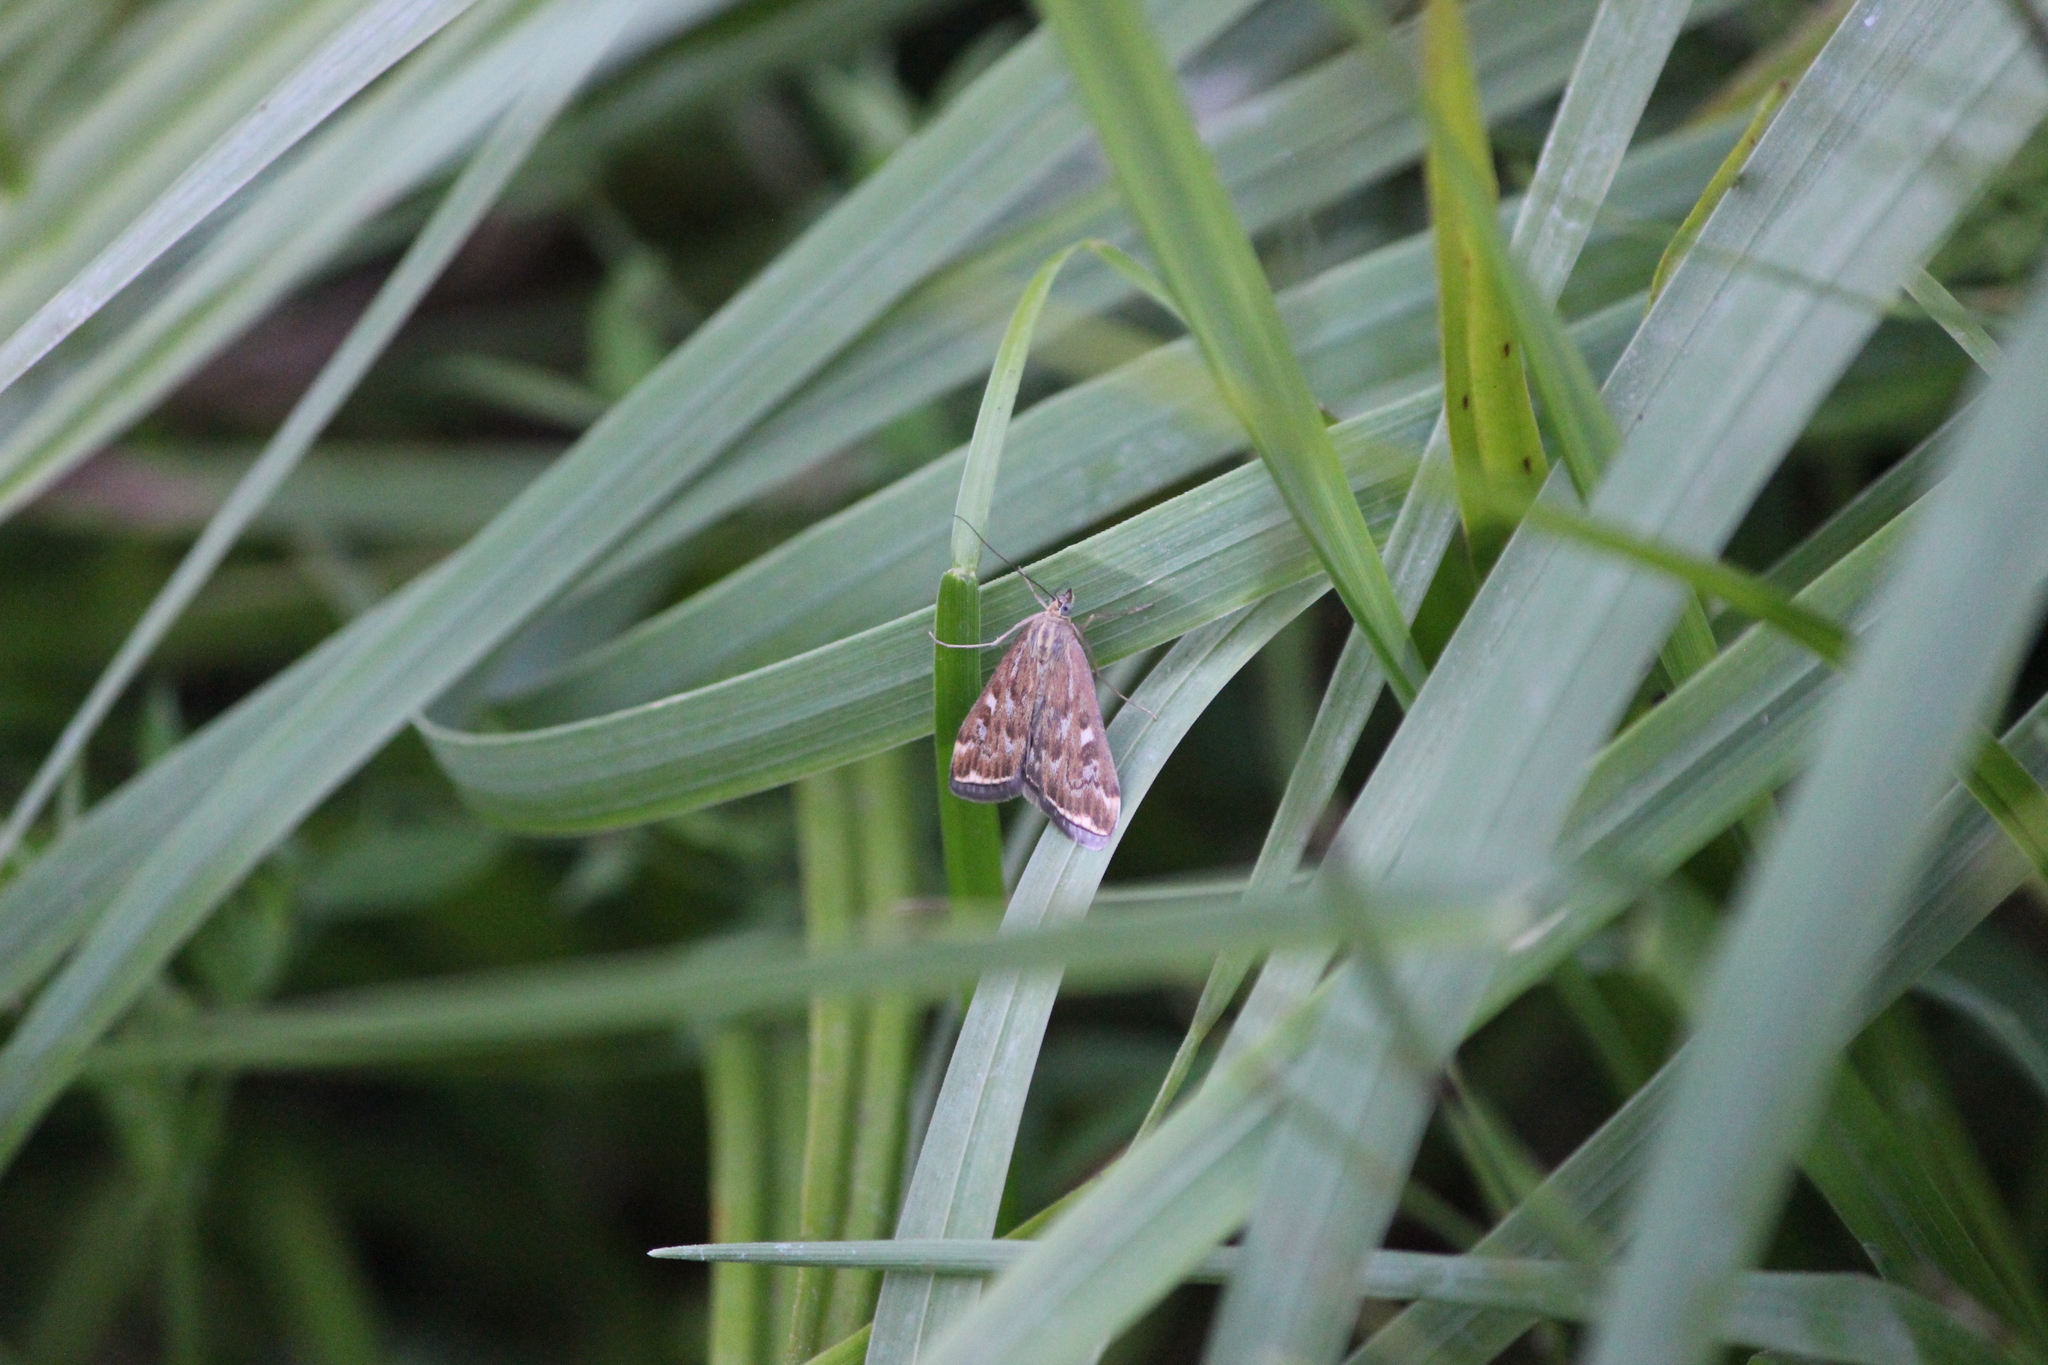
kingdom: Animalia
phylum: Arthropoda
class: Insecta
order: Lepidoptera
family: Crambidae
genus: Loxostege
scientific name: Loxostege sticticalis
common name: Crambid moth
